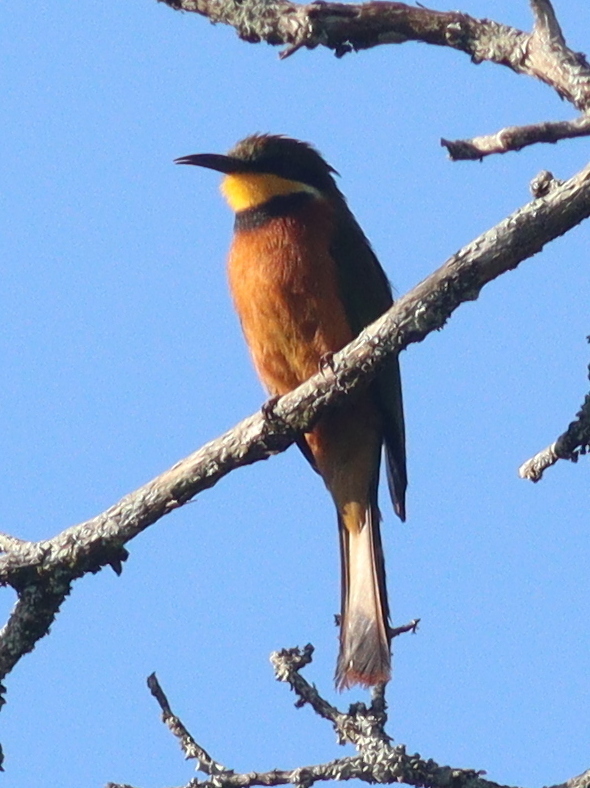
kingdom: Animalia
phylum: Chordata
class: Aves
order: Coraciiformes
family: Meropidae
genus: Merops
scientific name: Merops oreobates
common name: Cinnamon-chested bee-eater
